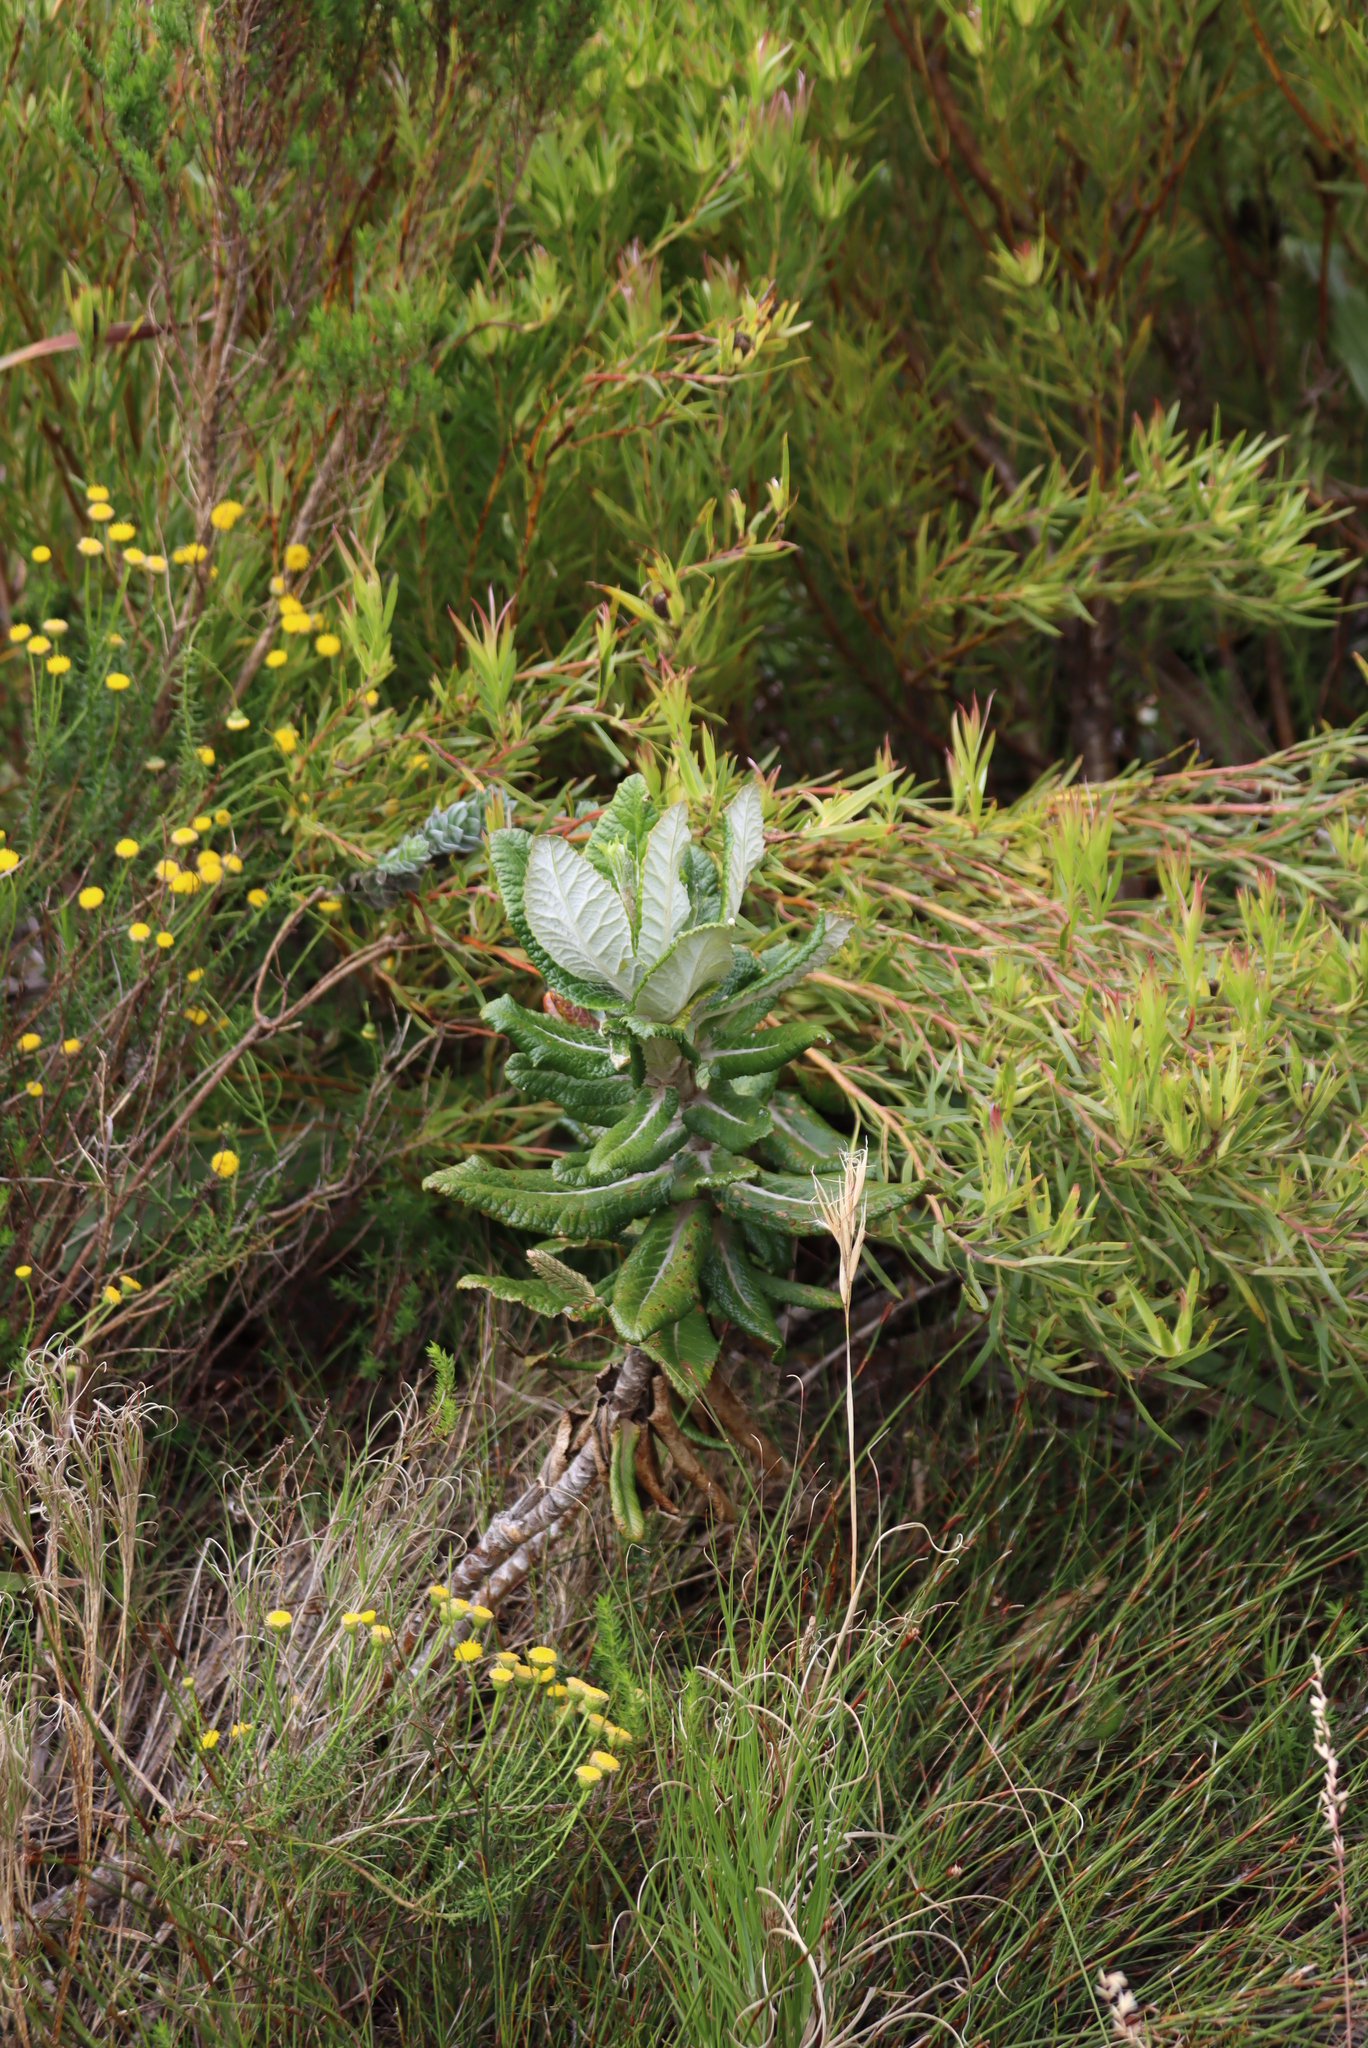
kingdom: Plantae
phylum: Tracheophyta
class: Magnoliopsida
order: Apiales
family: Apiaceae
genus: Hermas
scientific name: Hermas villosa
